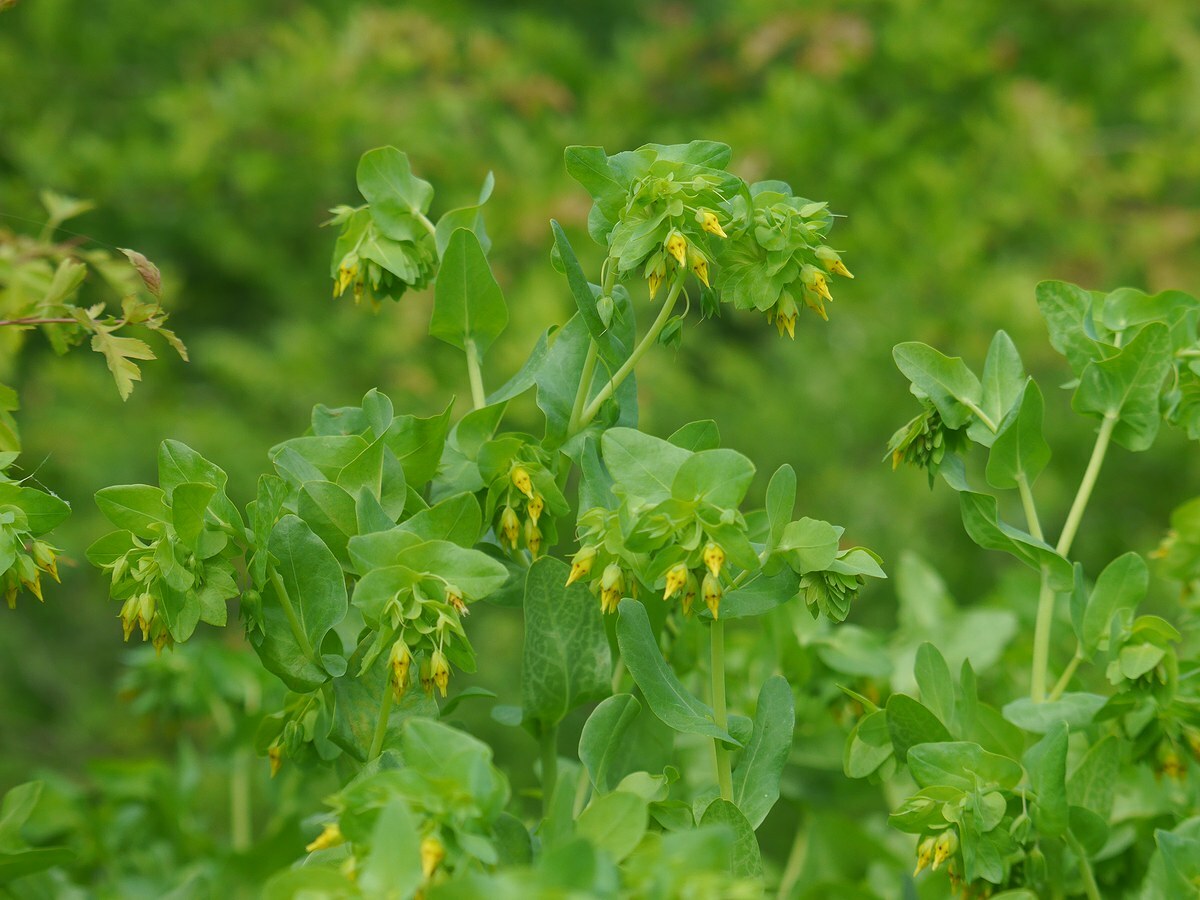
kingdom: Plantae
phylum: Tracheophyta
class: Magnoliopsida
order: Boraginales
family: Boraginaceae
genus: Cerinthe
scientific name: Cerinthe minor
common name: Lesser honeywort
